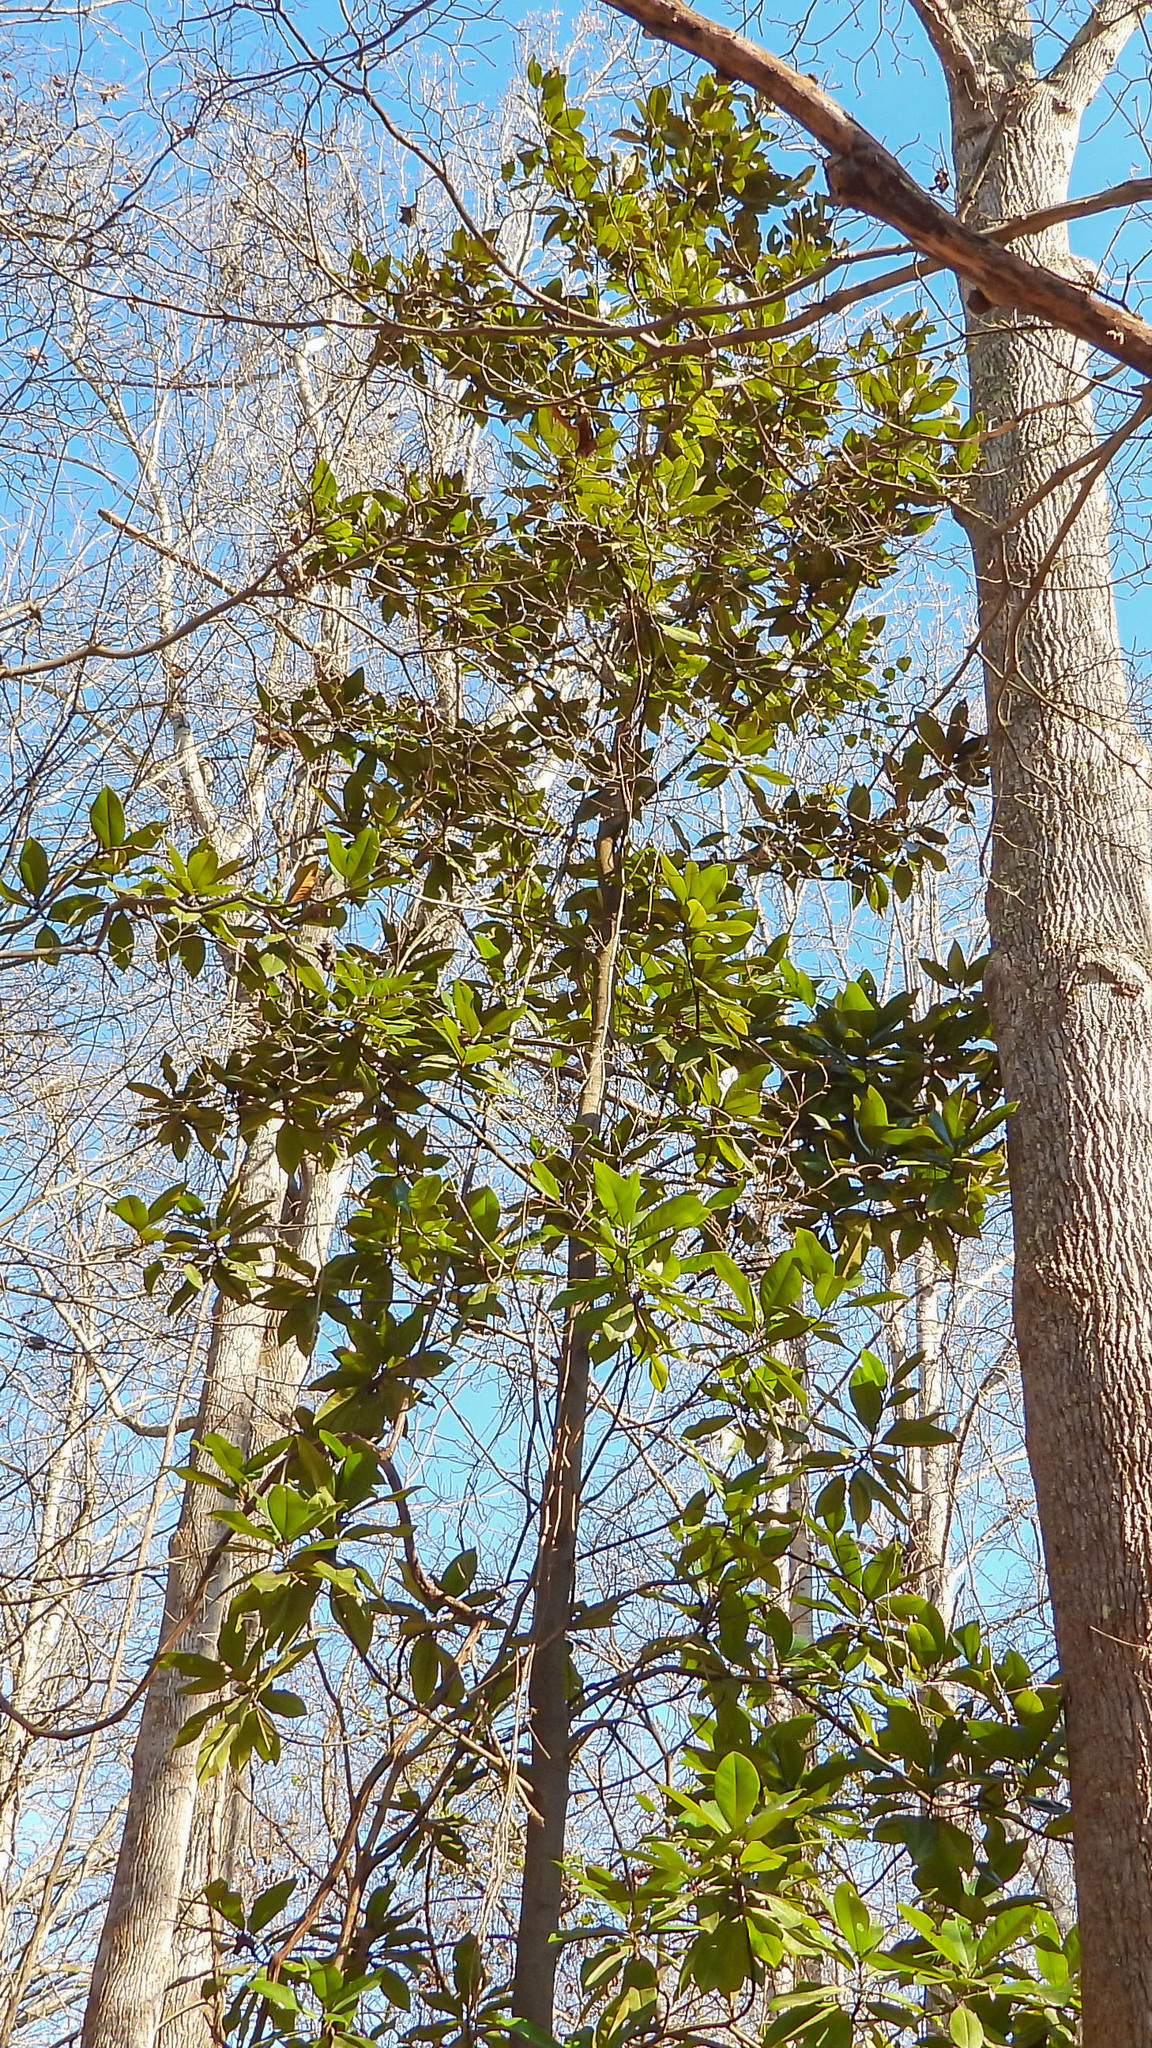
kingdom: Plantae
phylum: Tracheophyta
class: Magnoliopsida
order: Magnoliales
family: Magnoliaceae
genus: Magnolia
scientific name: Magnolia grandiflora
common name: Southern magnolia
